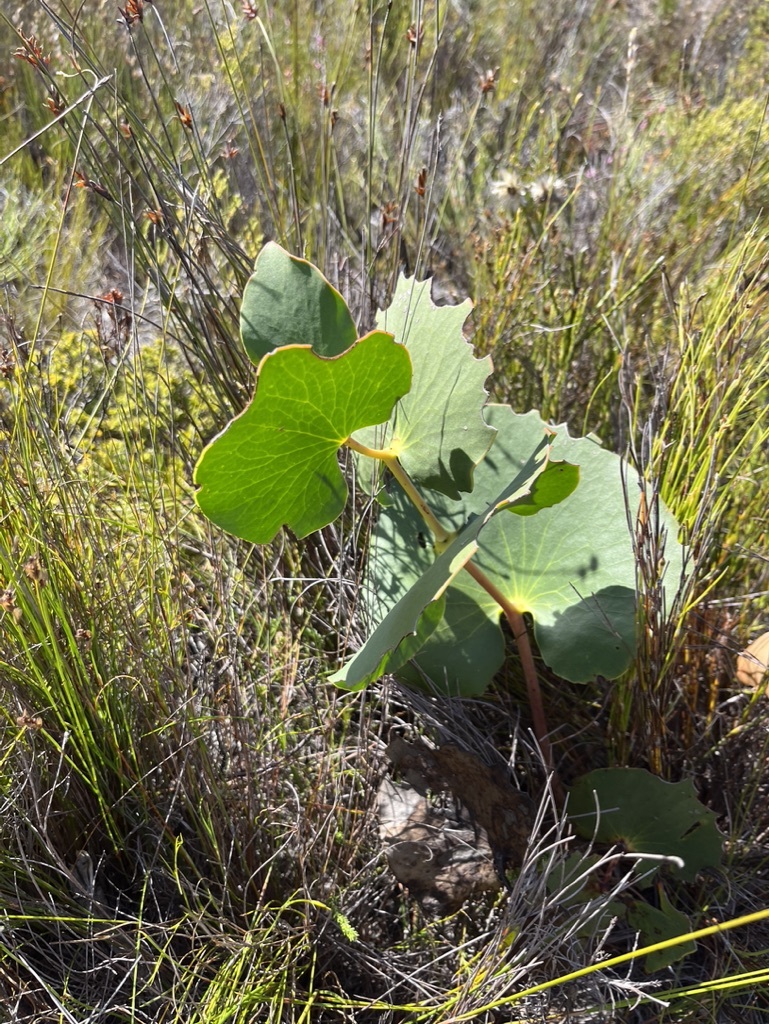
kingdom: Plantae
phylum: Tracheophyta
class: Magnoliopsida
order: Proteales
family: Proteaceae
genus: Protea
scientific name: Protea cordata
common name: Heart-leaf sugarbush
